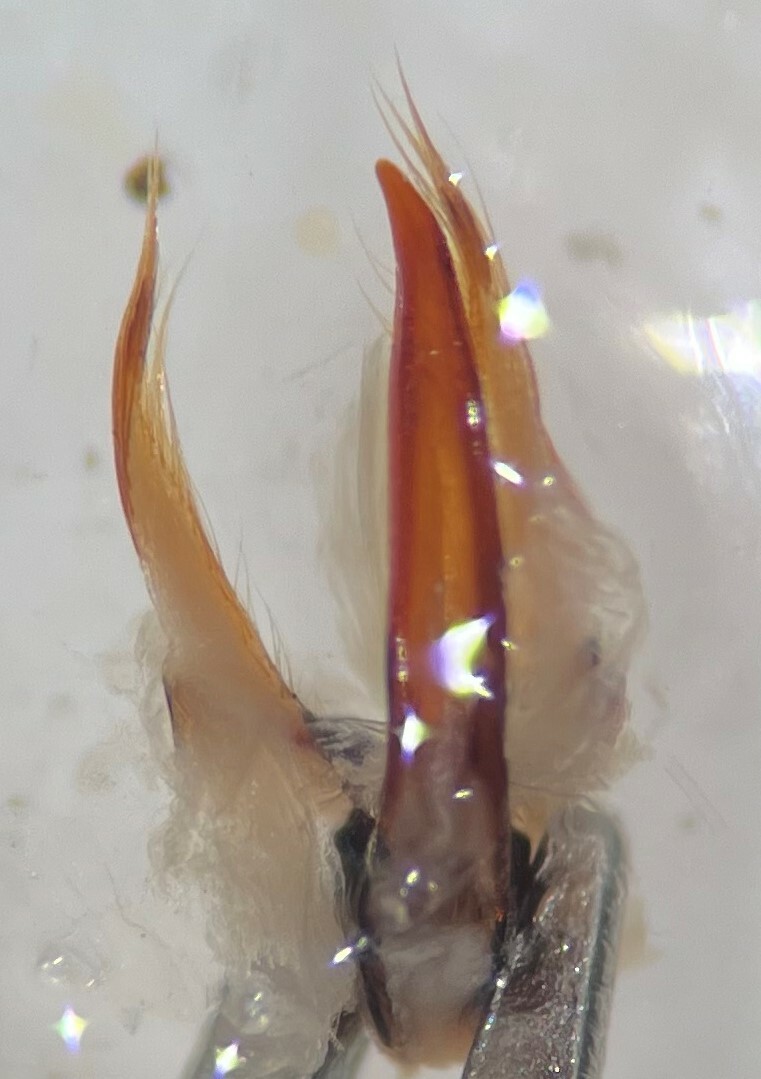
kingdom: Animalia
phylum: Arthropoda
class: Insecta
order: Coleoptera
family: Dytiscidae
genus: Ilybiosoma
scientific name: Ilybiosoma lugens
